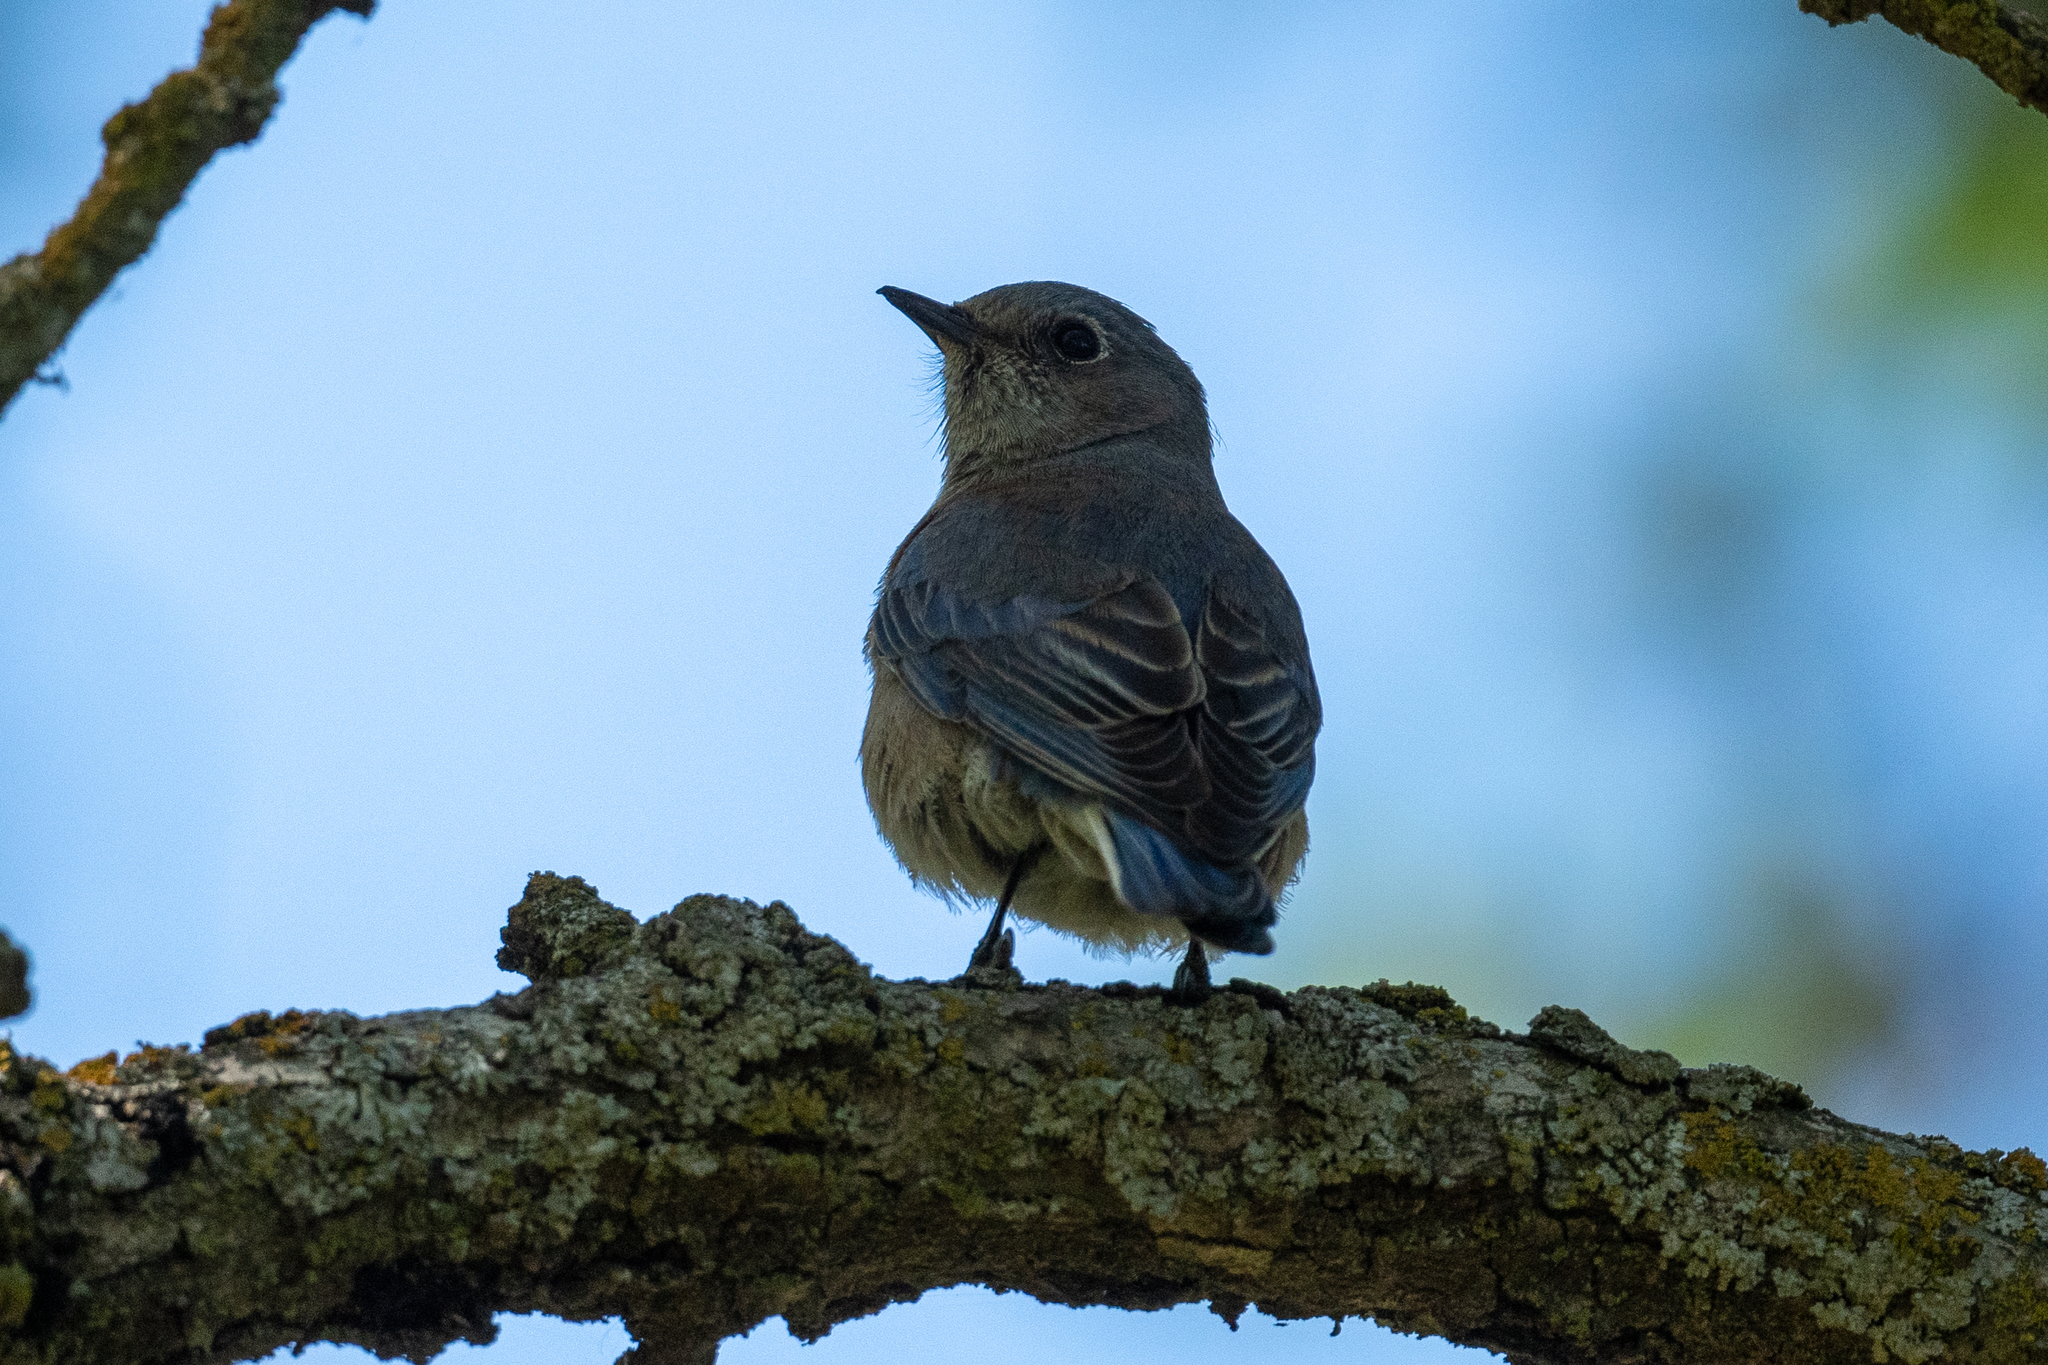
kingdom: Animalia
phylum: Chordata
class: Aves
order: Passeriformes
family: Turdidae
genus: Sialia
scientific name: Sialia mexicana
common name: Western bluebird
